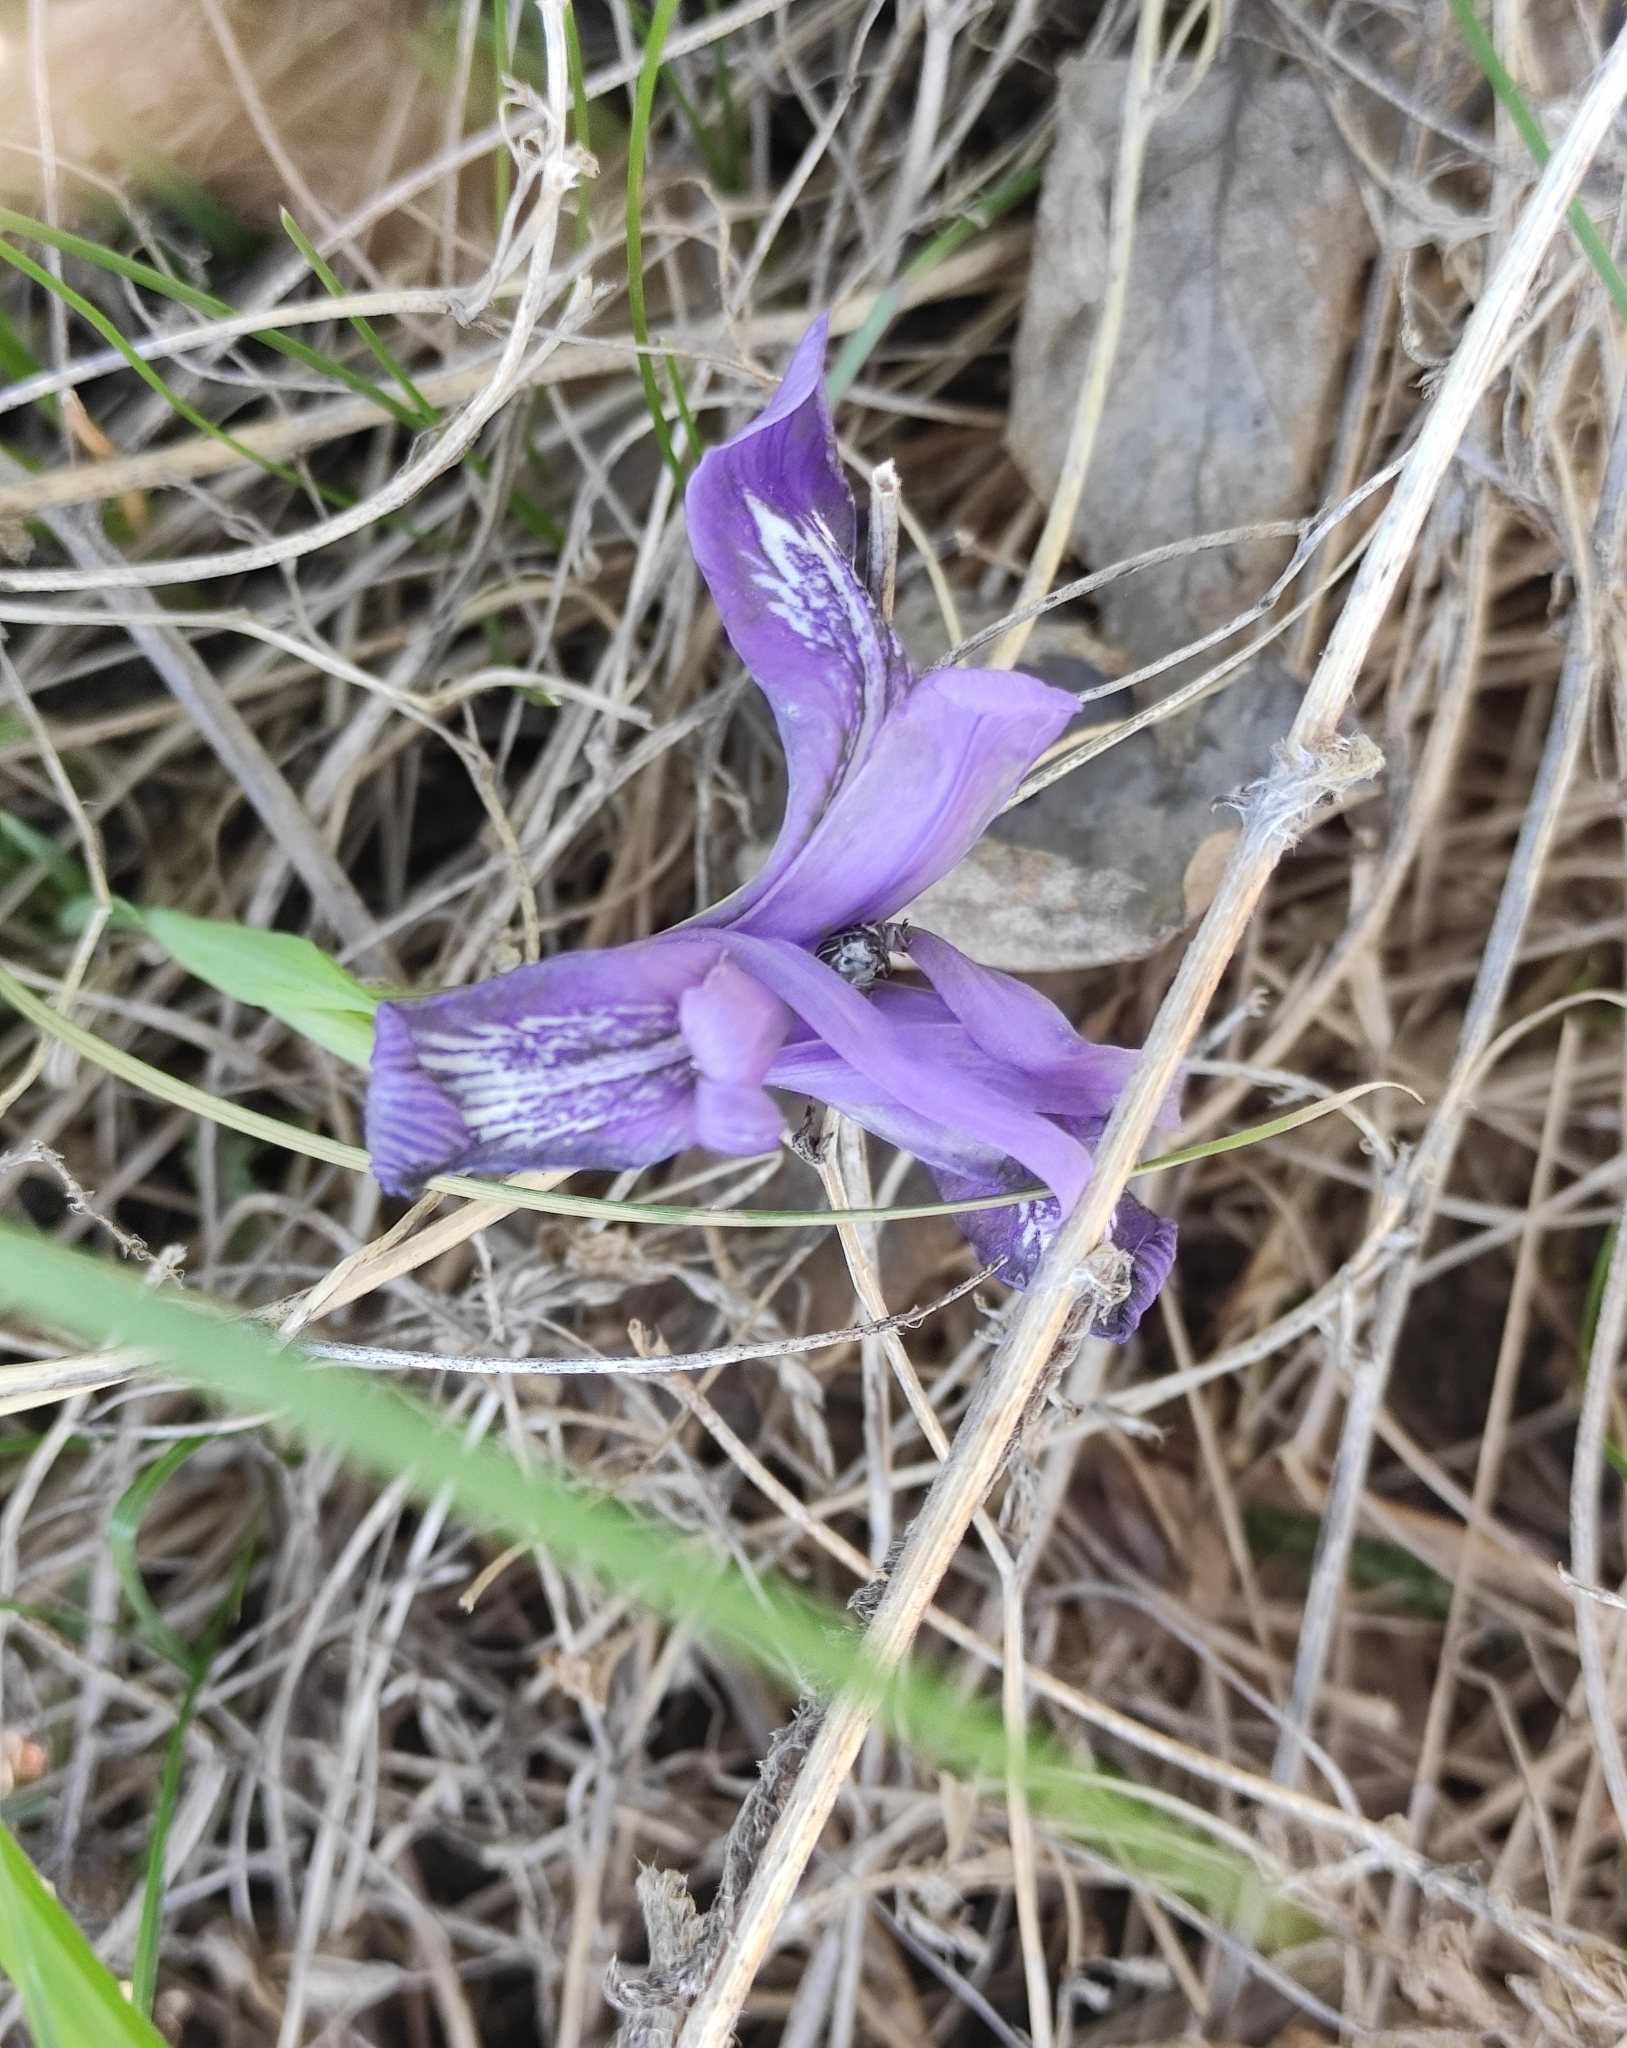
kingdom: Plantae
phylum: Tracheophyta
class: Liliopsida
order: Asparagales
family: Iridaceae
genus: Iris
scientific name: Iris ruthenica
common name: Purple-bract iris
